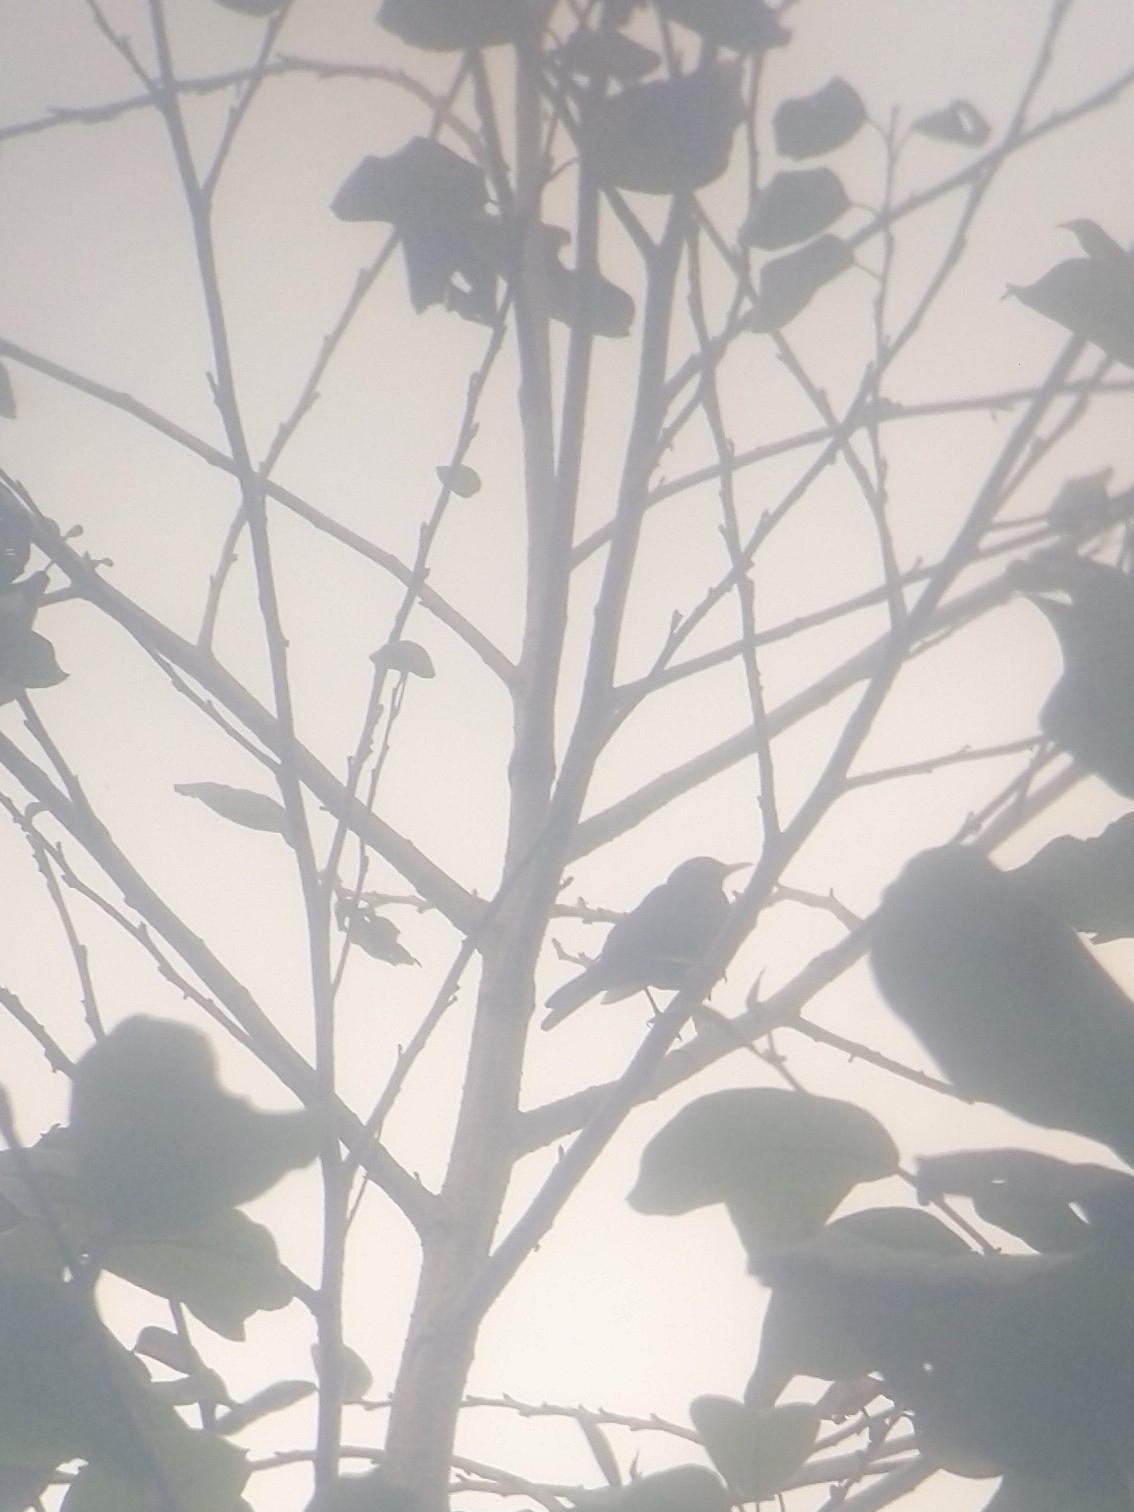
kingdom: Animalia
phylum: Chordata
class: Aves
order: Passeriformes
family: Turdidae
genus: Turdus
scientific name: Turdus simillimus
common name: Indian blackbird
